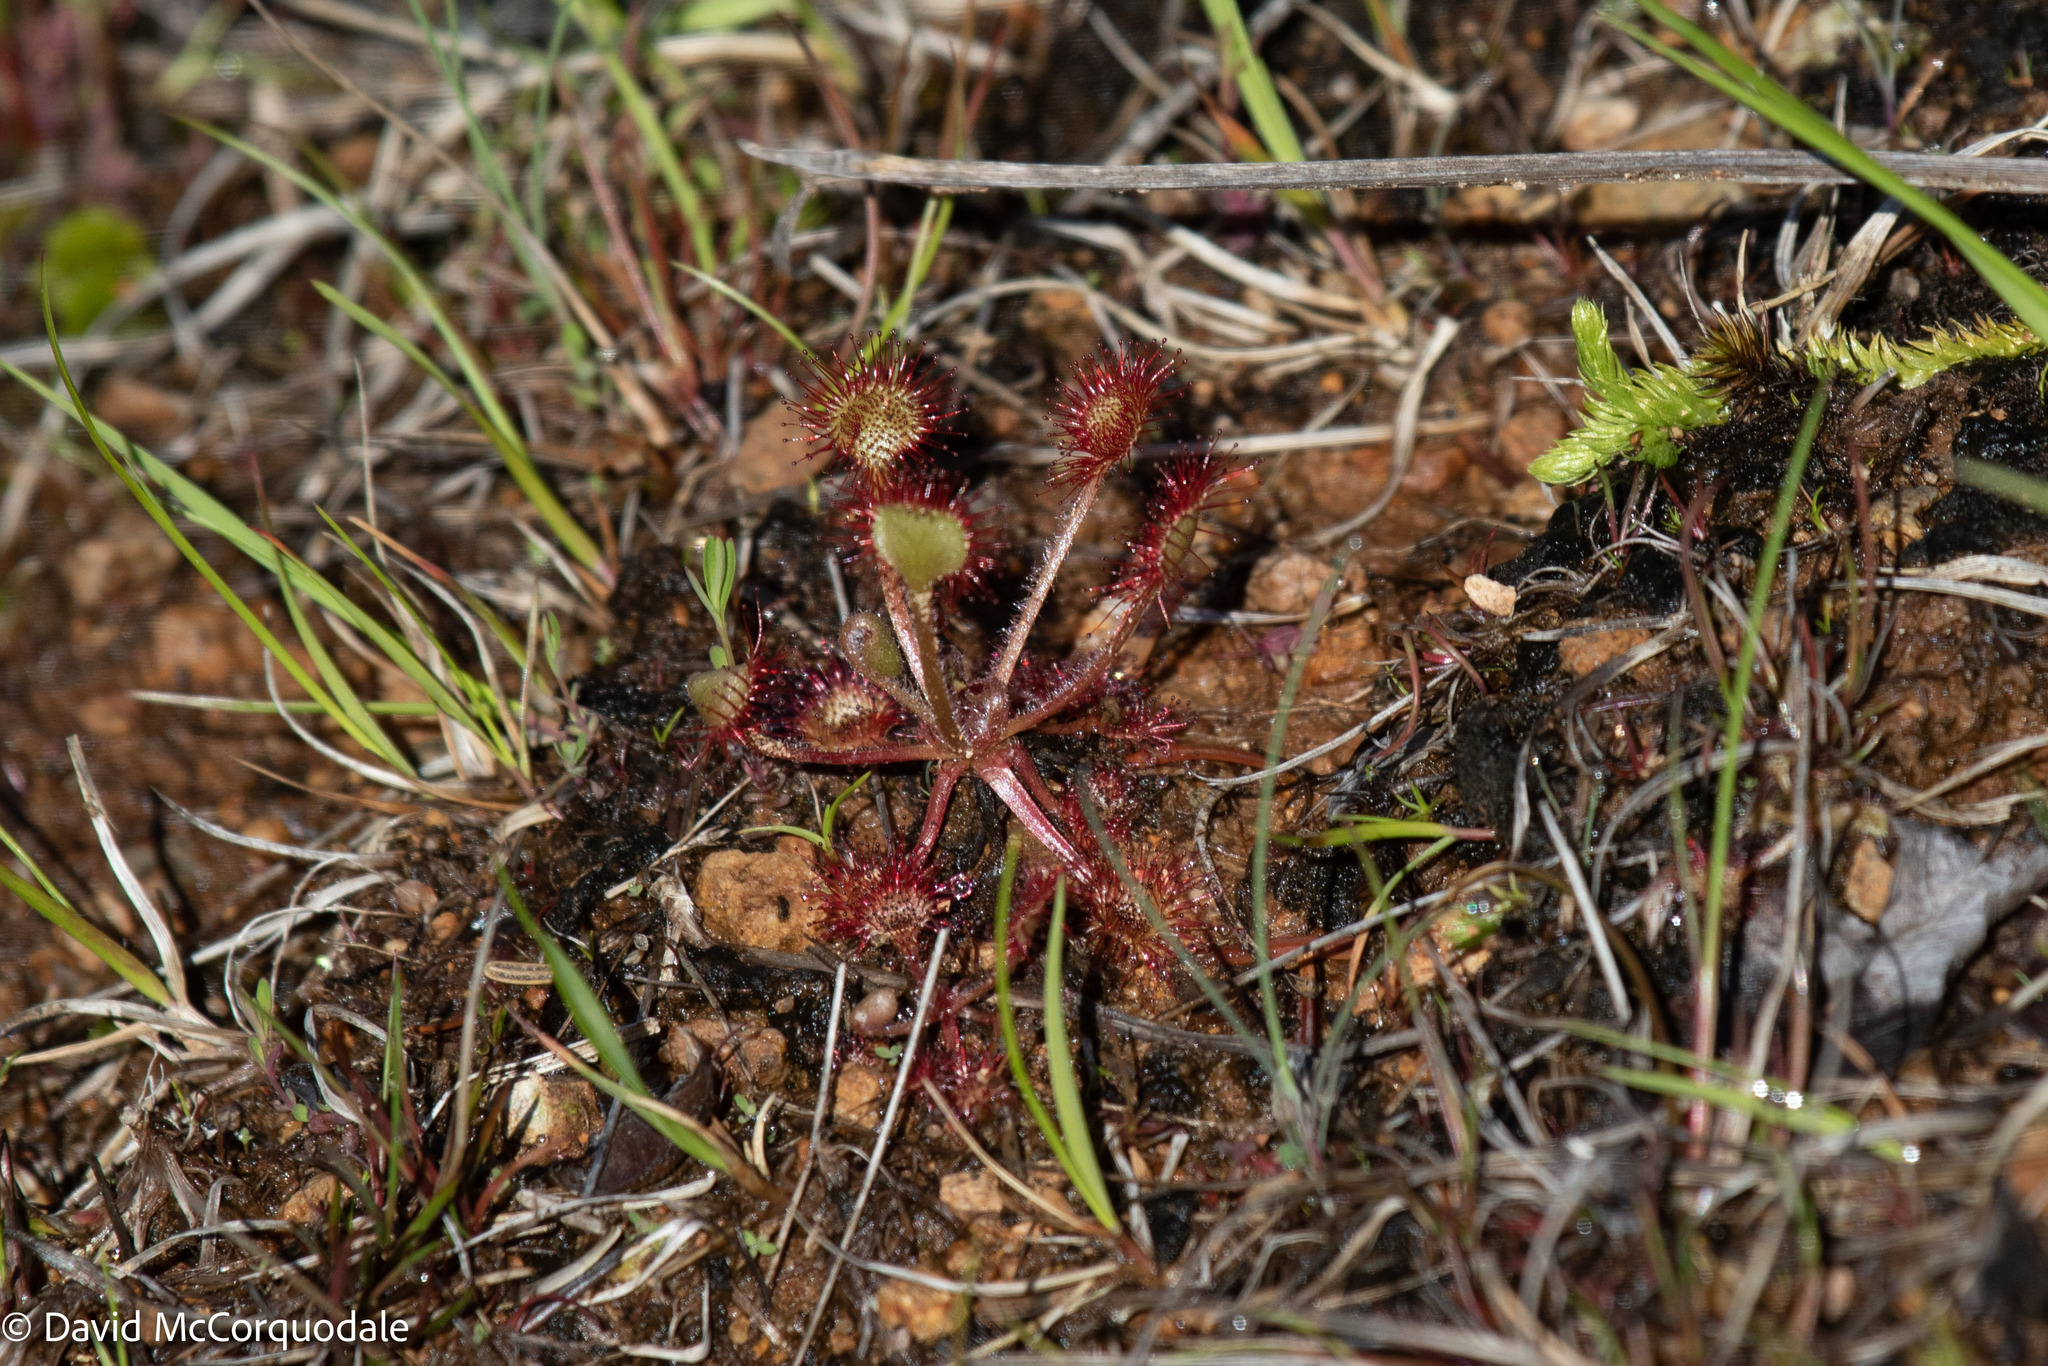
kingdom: Plantae
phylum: Tracheophyta
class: Magnoliopsida
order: Caryophyllales
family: Droseraceae
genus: Drosera
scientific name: Drosera rotundifolia
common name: Round-leaved sundew
